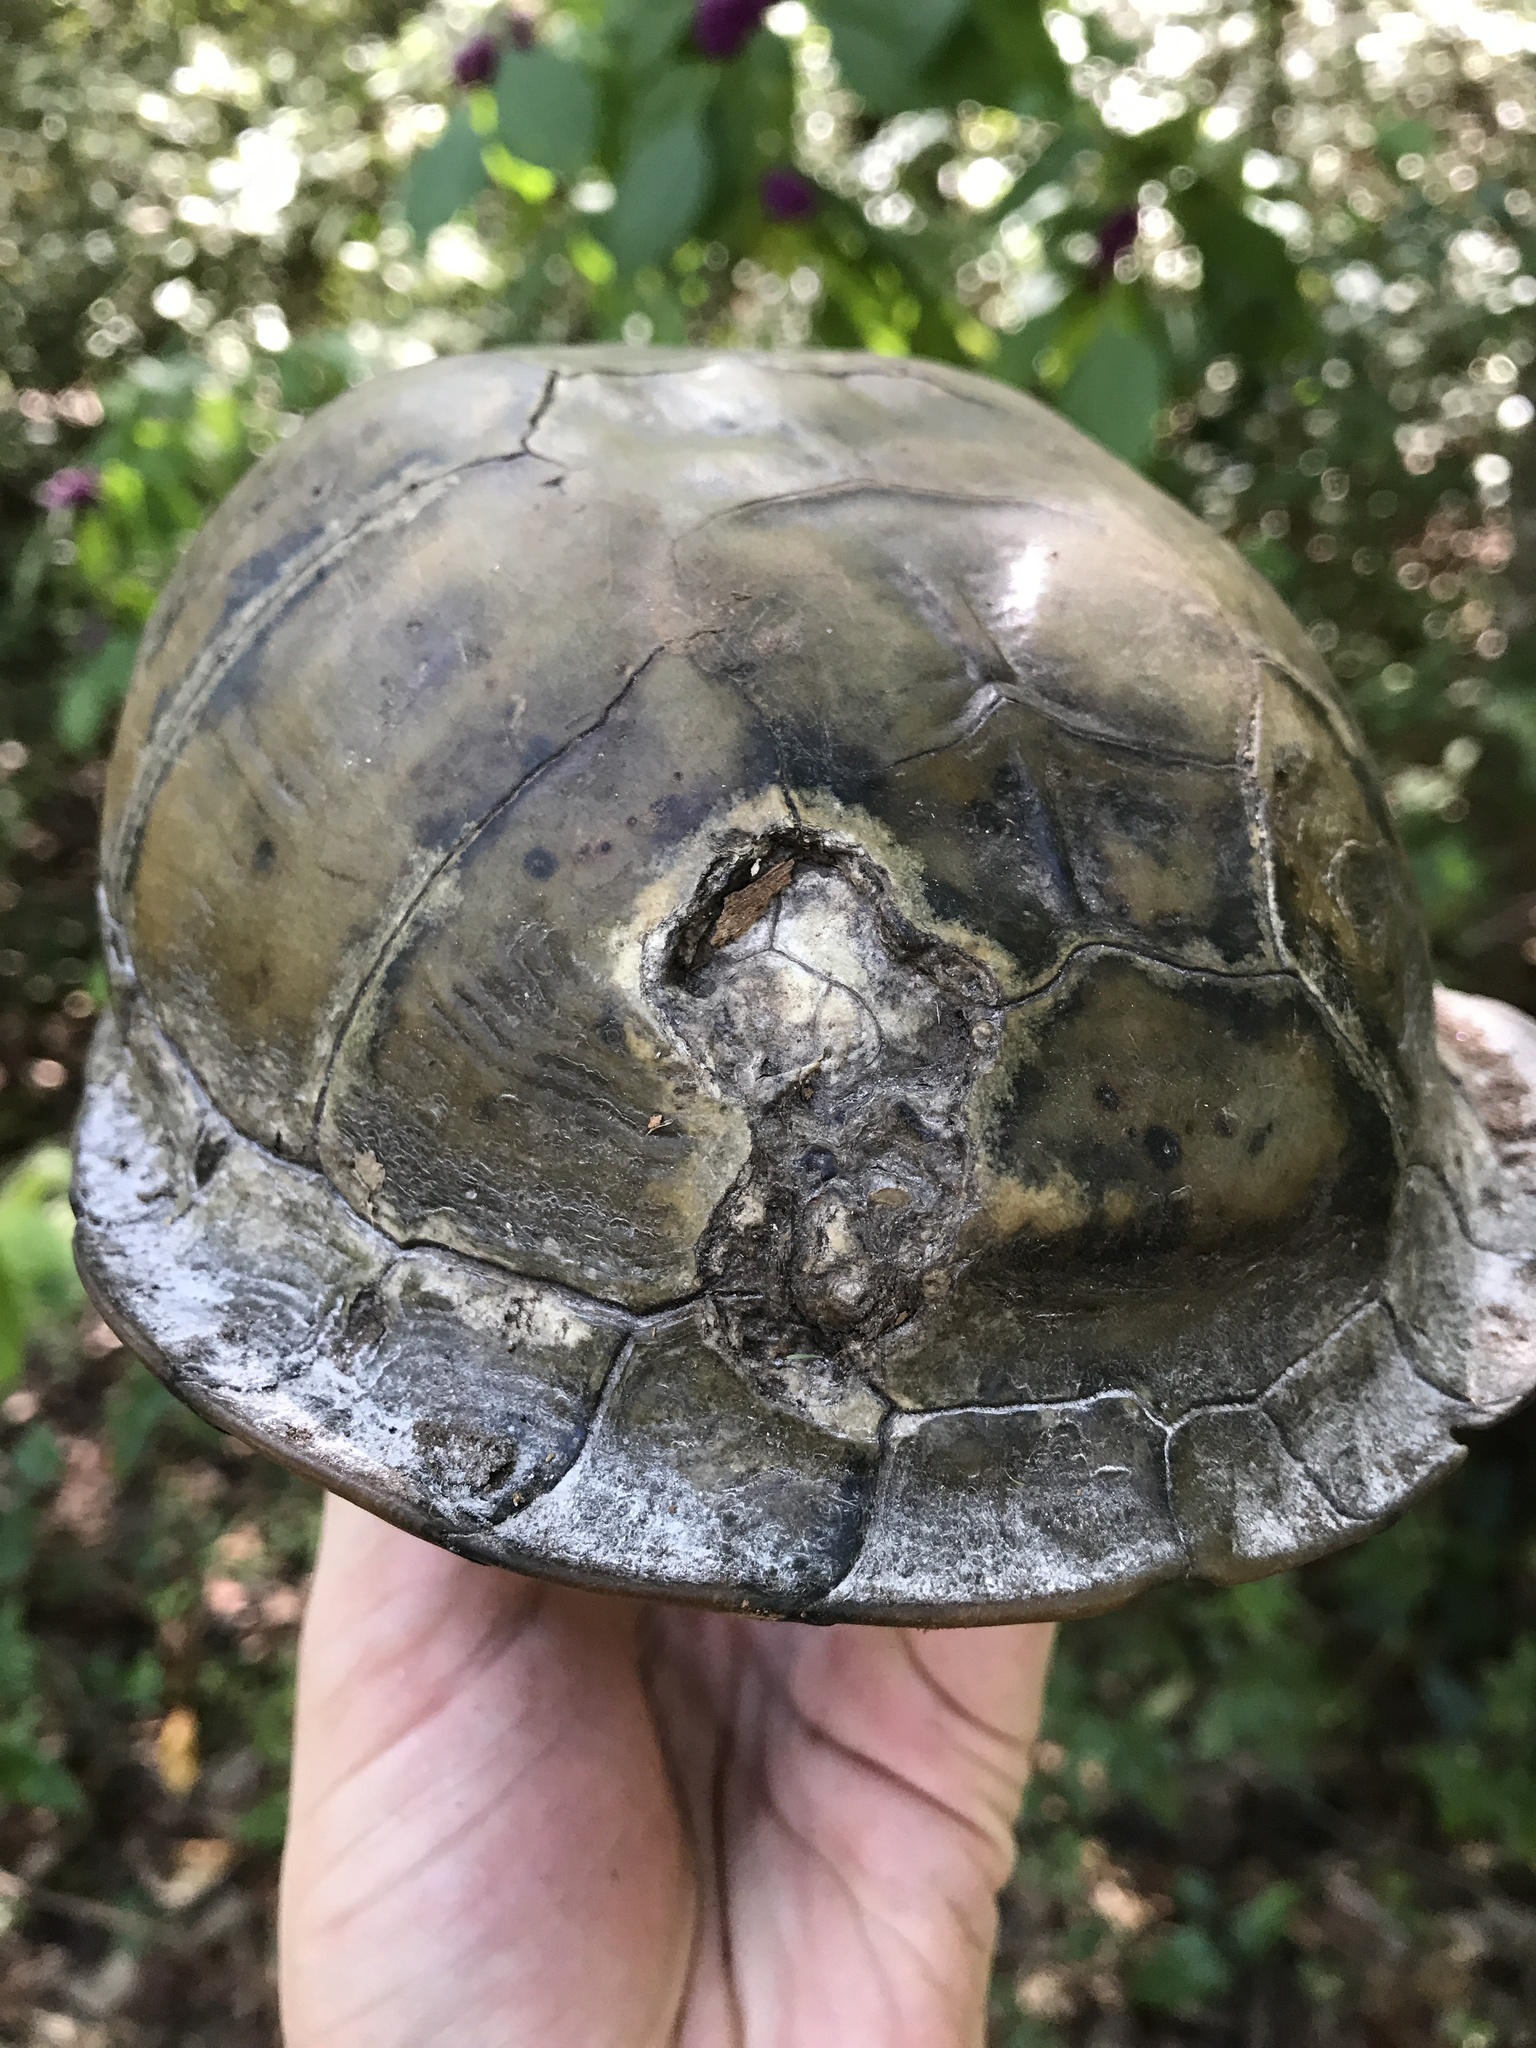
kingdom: Animalia
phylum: Chordata
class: Testudines
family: Emydidae
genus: Terrapene
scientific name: Terrapene carolina
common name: Common box turtle
